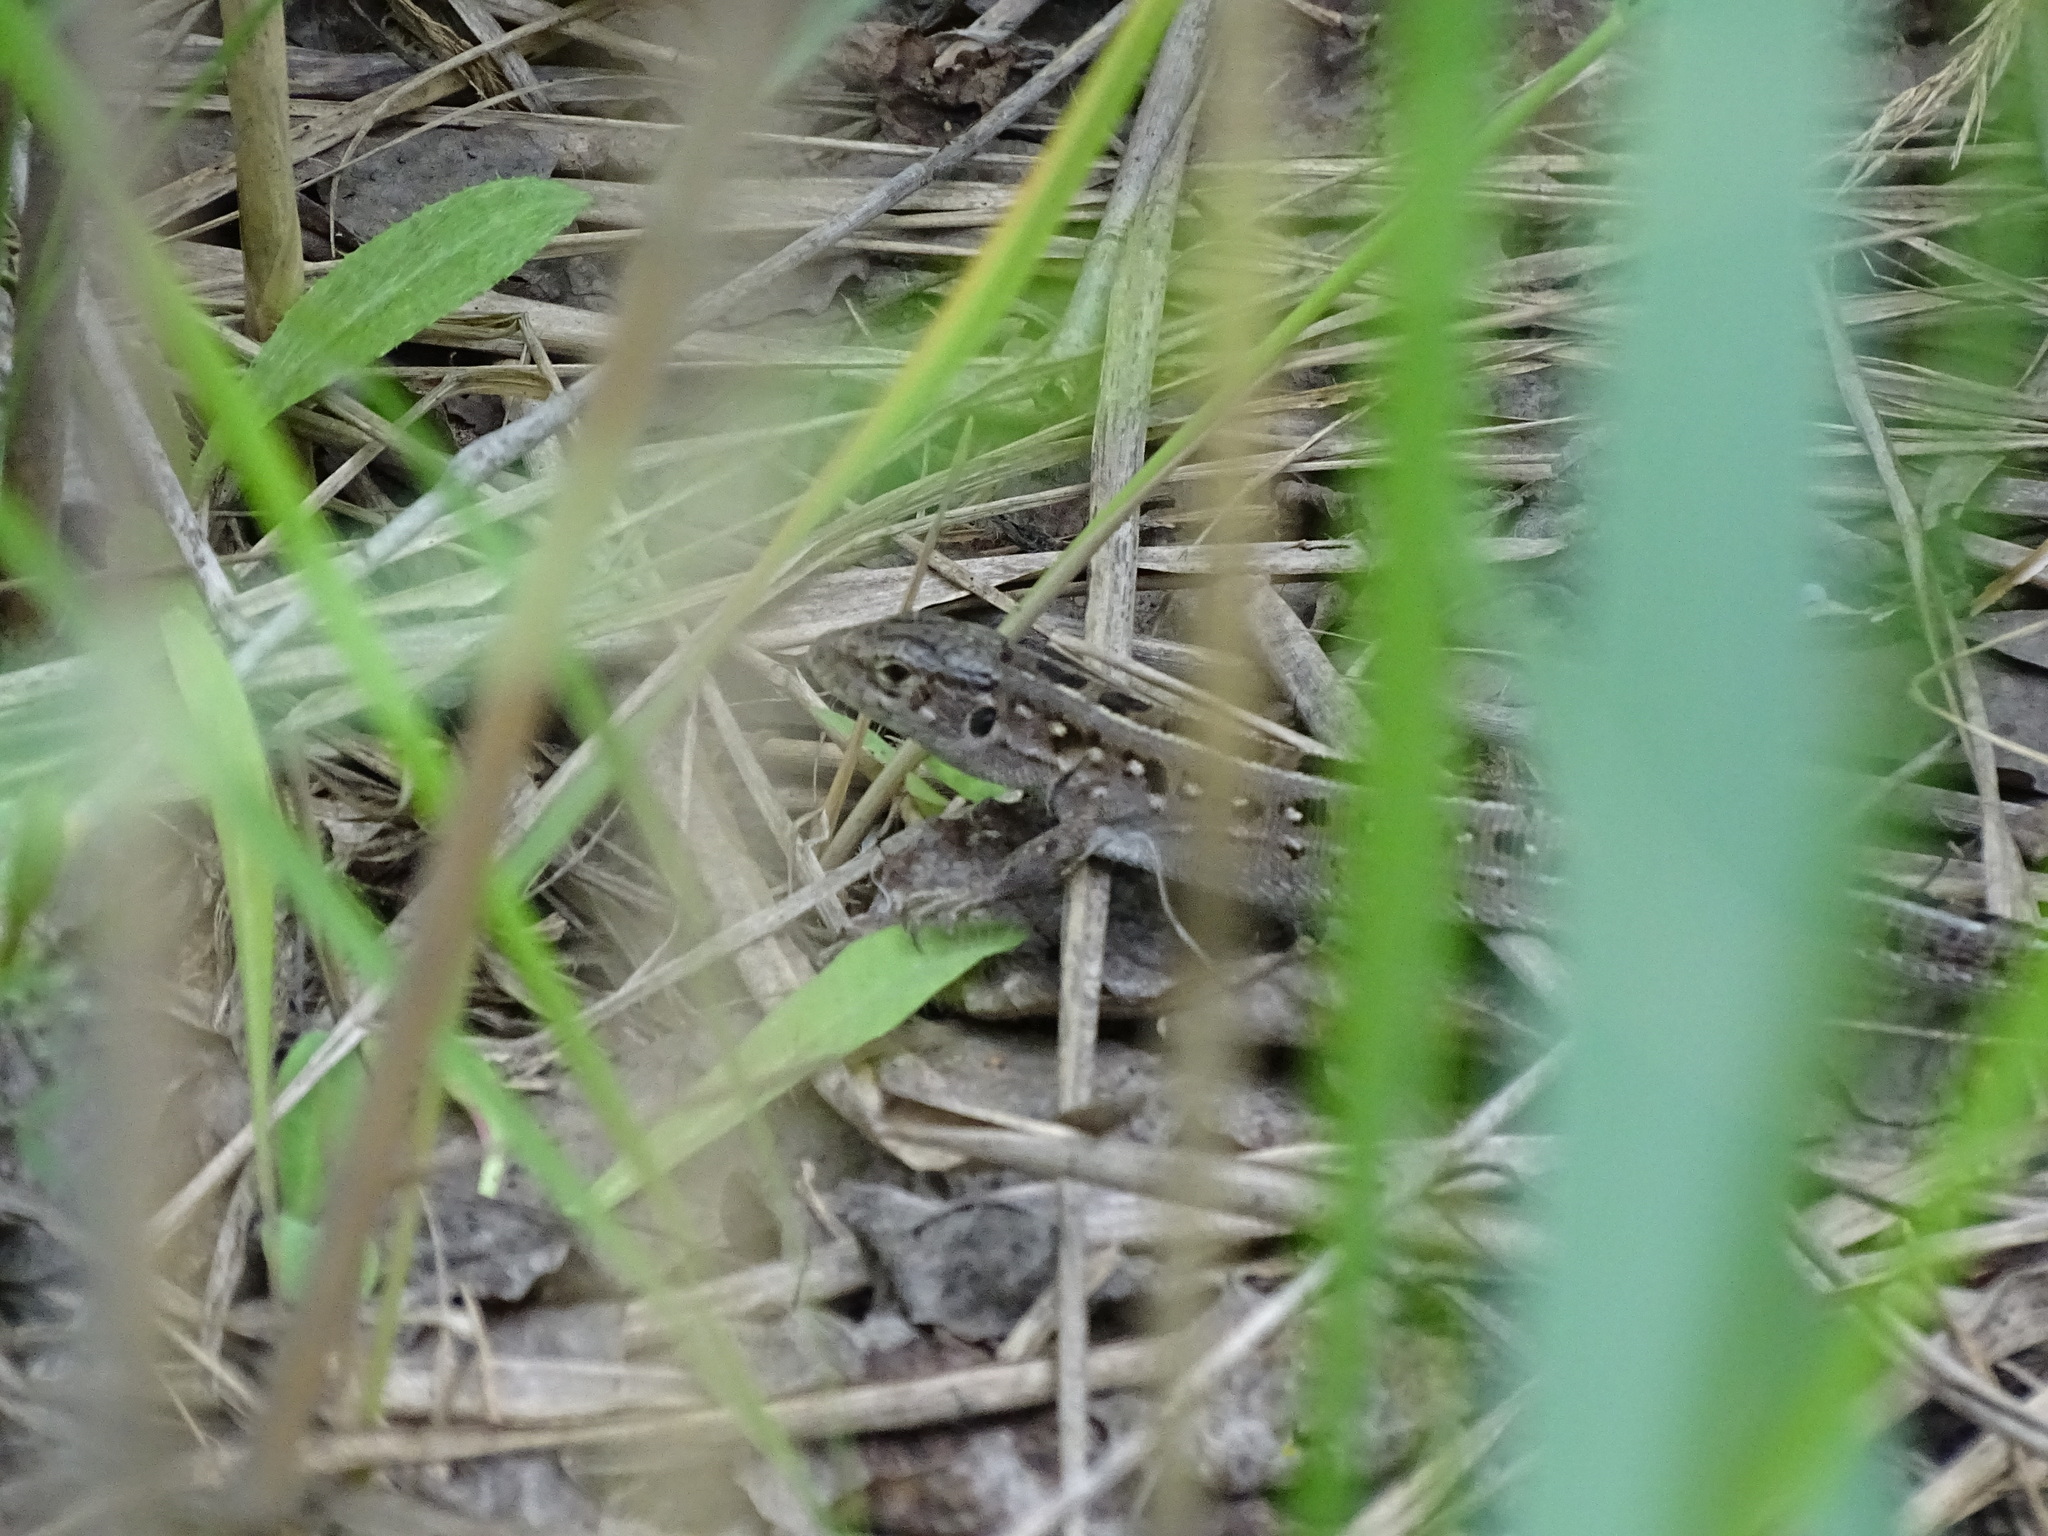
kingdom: Animalia
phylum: Chordata
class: Squamata
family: Lacertidae
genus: Lacerta
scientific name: Lacerta agilis
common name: Sand lizard
